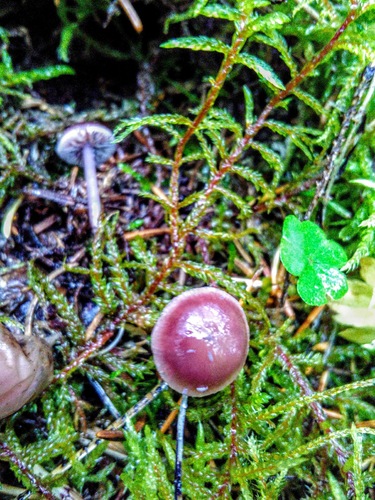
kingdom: Fungi
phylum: Basidiomycota
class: Agaricomycetes
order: Agaricales
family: Mycenaceae
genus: Mycena
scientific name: Mycena pura
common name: Lilac bonnet
